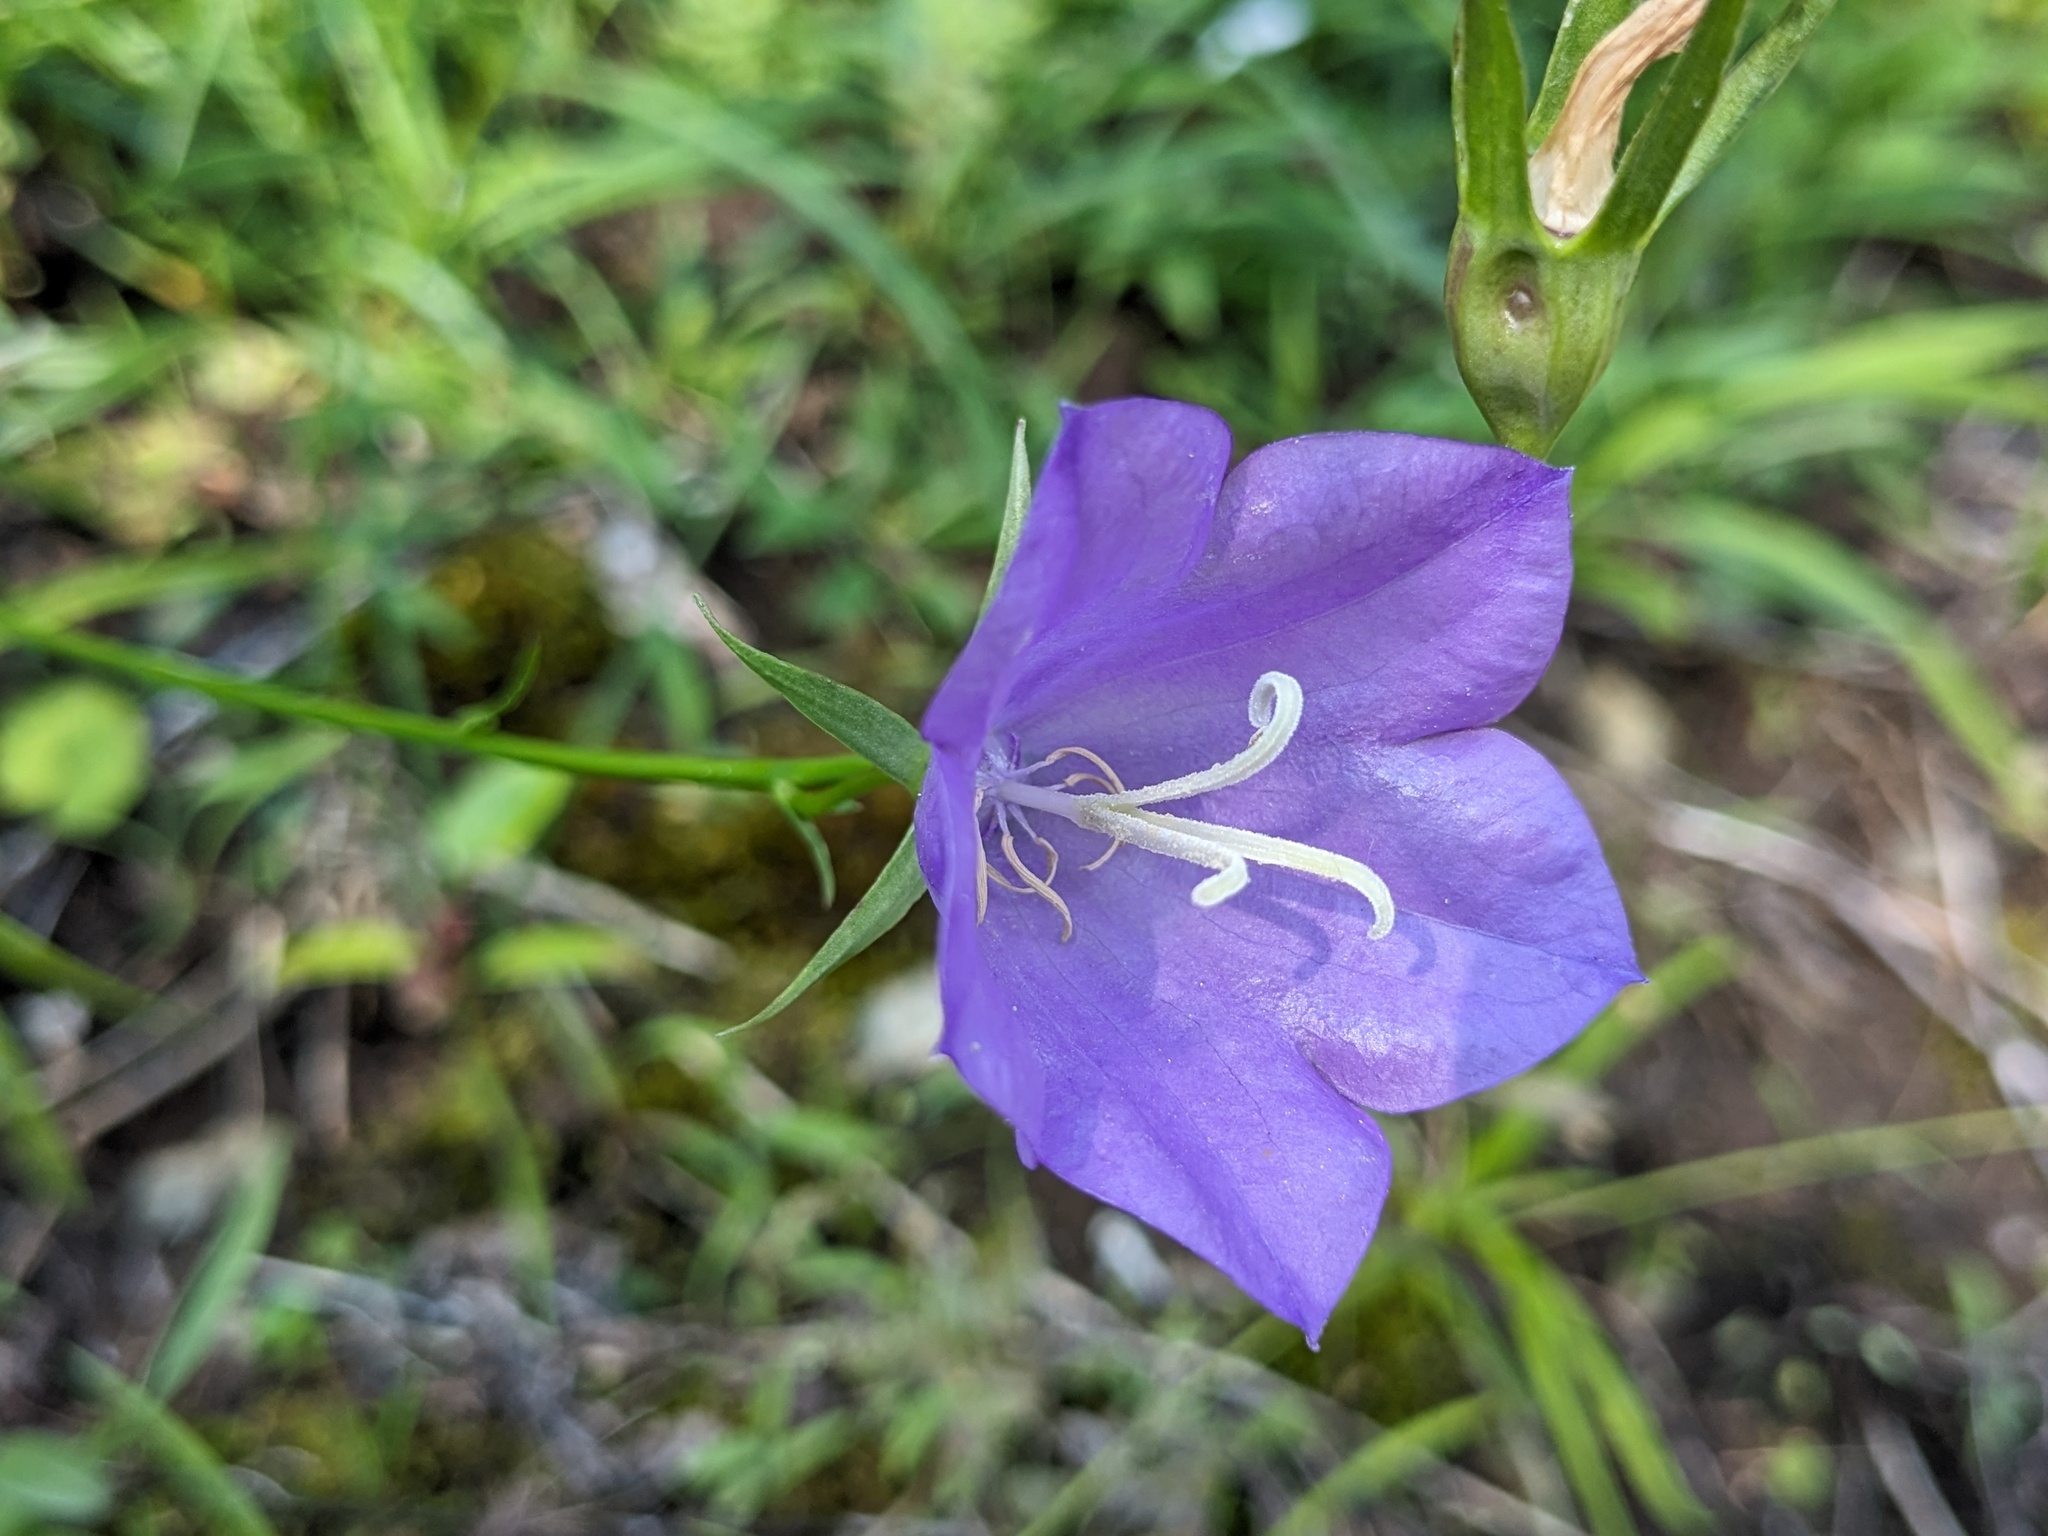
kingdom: Plantae
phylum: Tracheophyta
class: Magnoliopsida
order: Asterales
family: Campanulaceae
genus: Campanula
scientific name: Campanula persicifolia
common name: Peach-leaved bellflower
